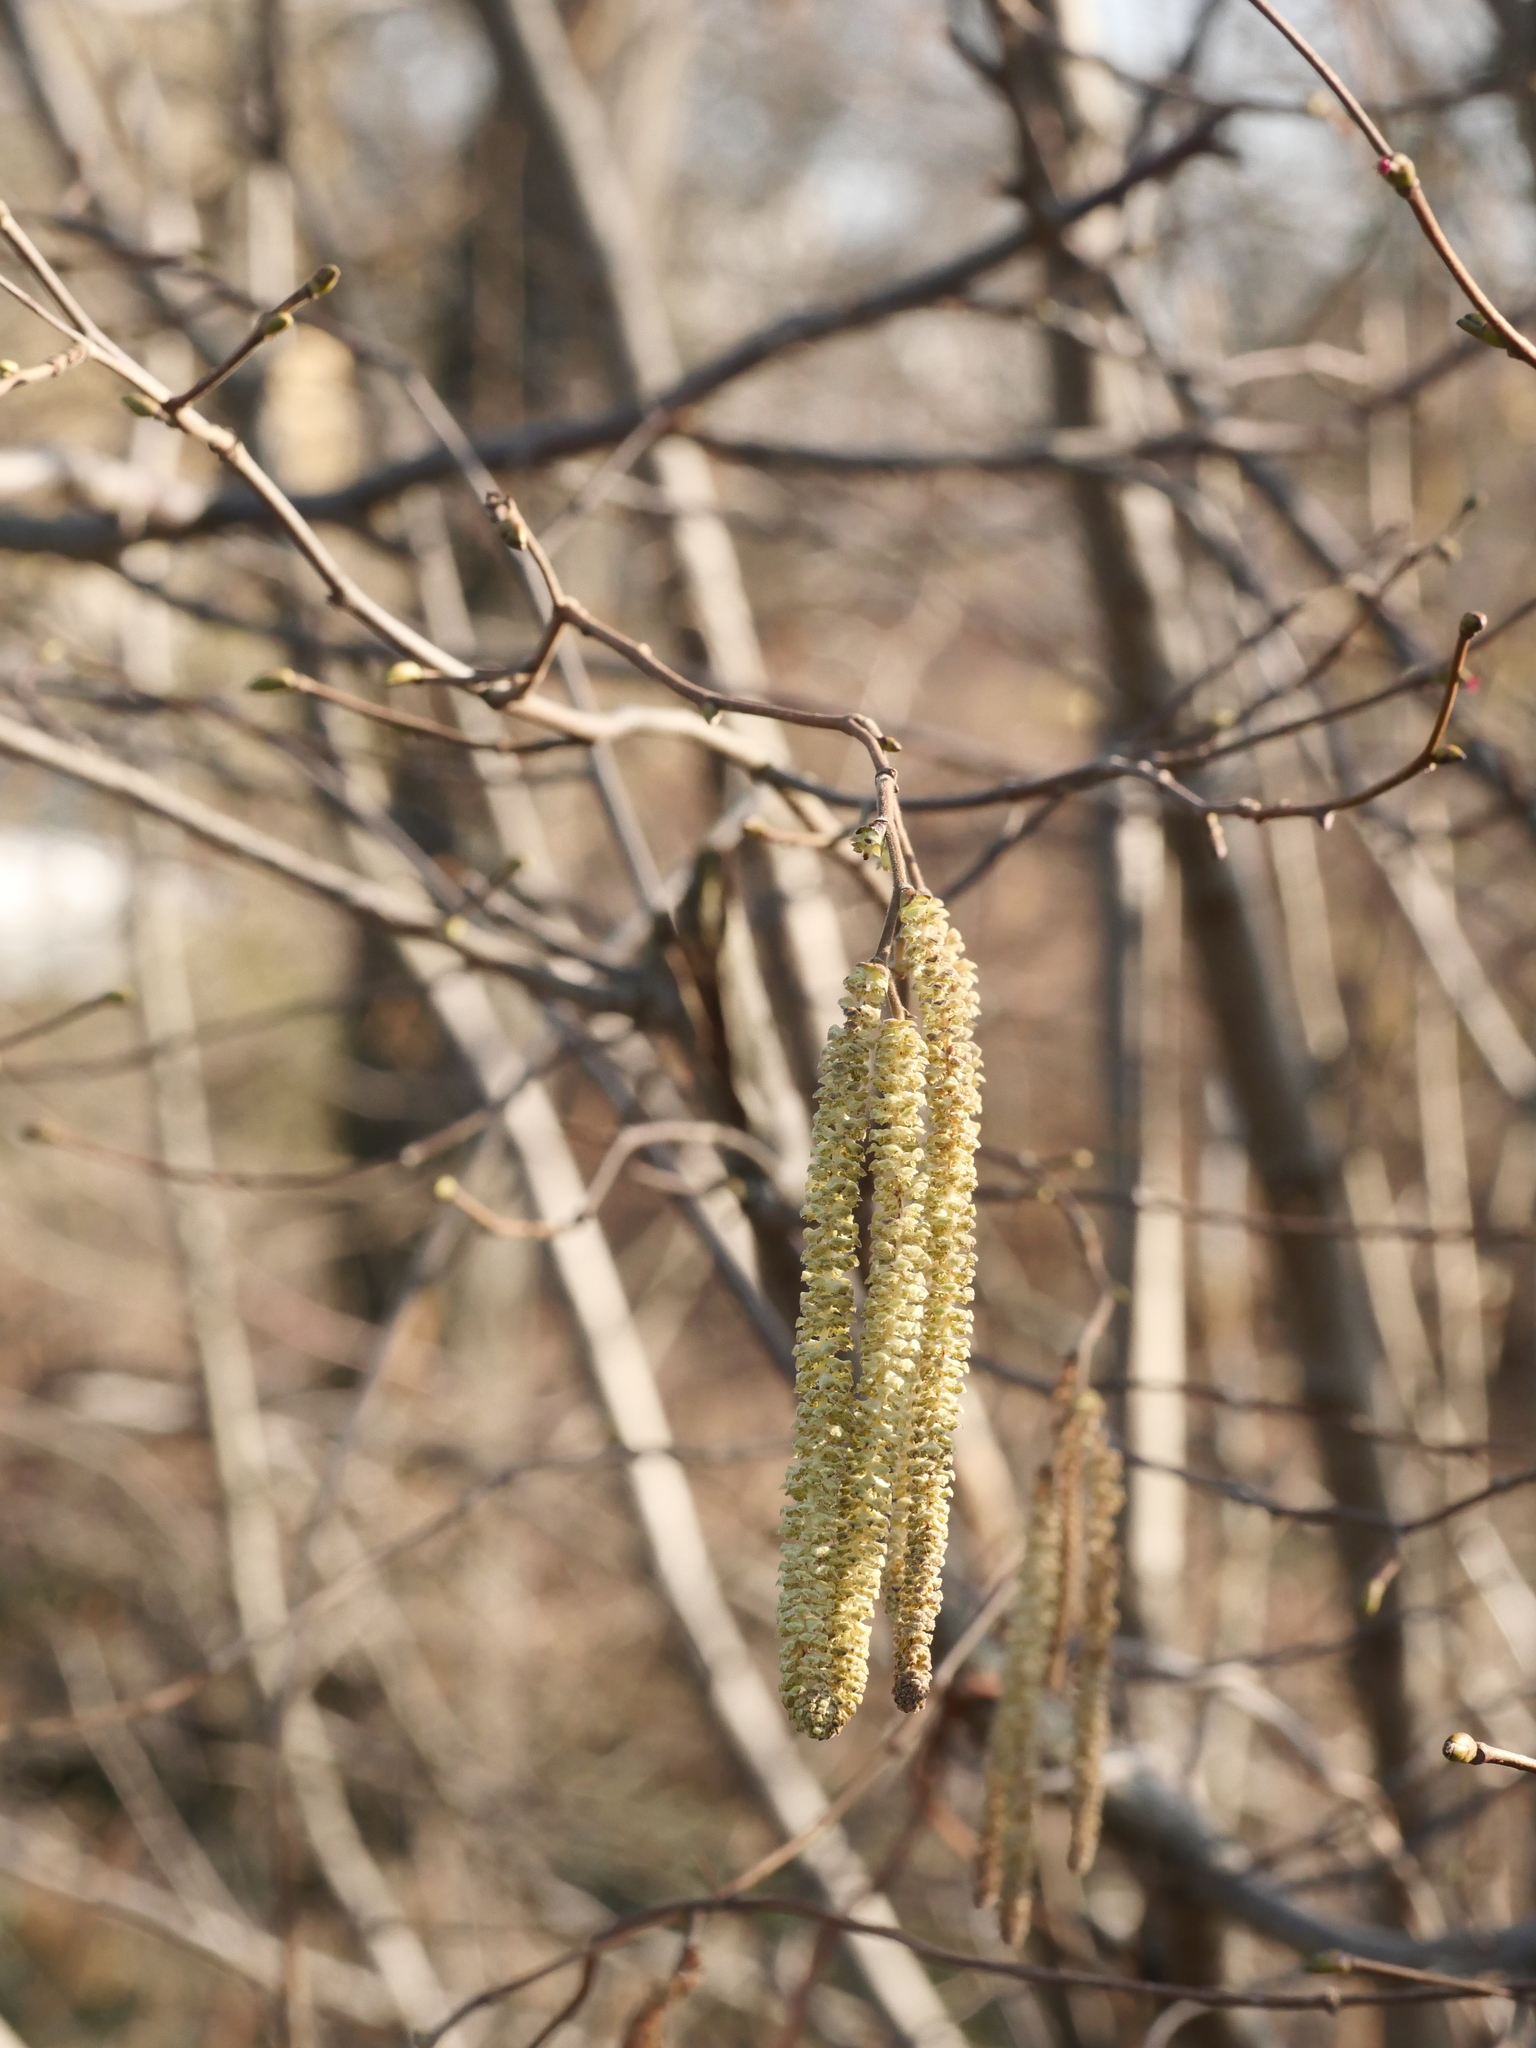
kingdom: Plantae
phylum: Tracheophyta
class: Magnoliopsida
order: Fagales
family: Betulaceae
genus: Corylus
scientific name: Corylus avellana
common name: European hazel
